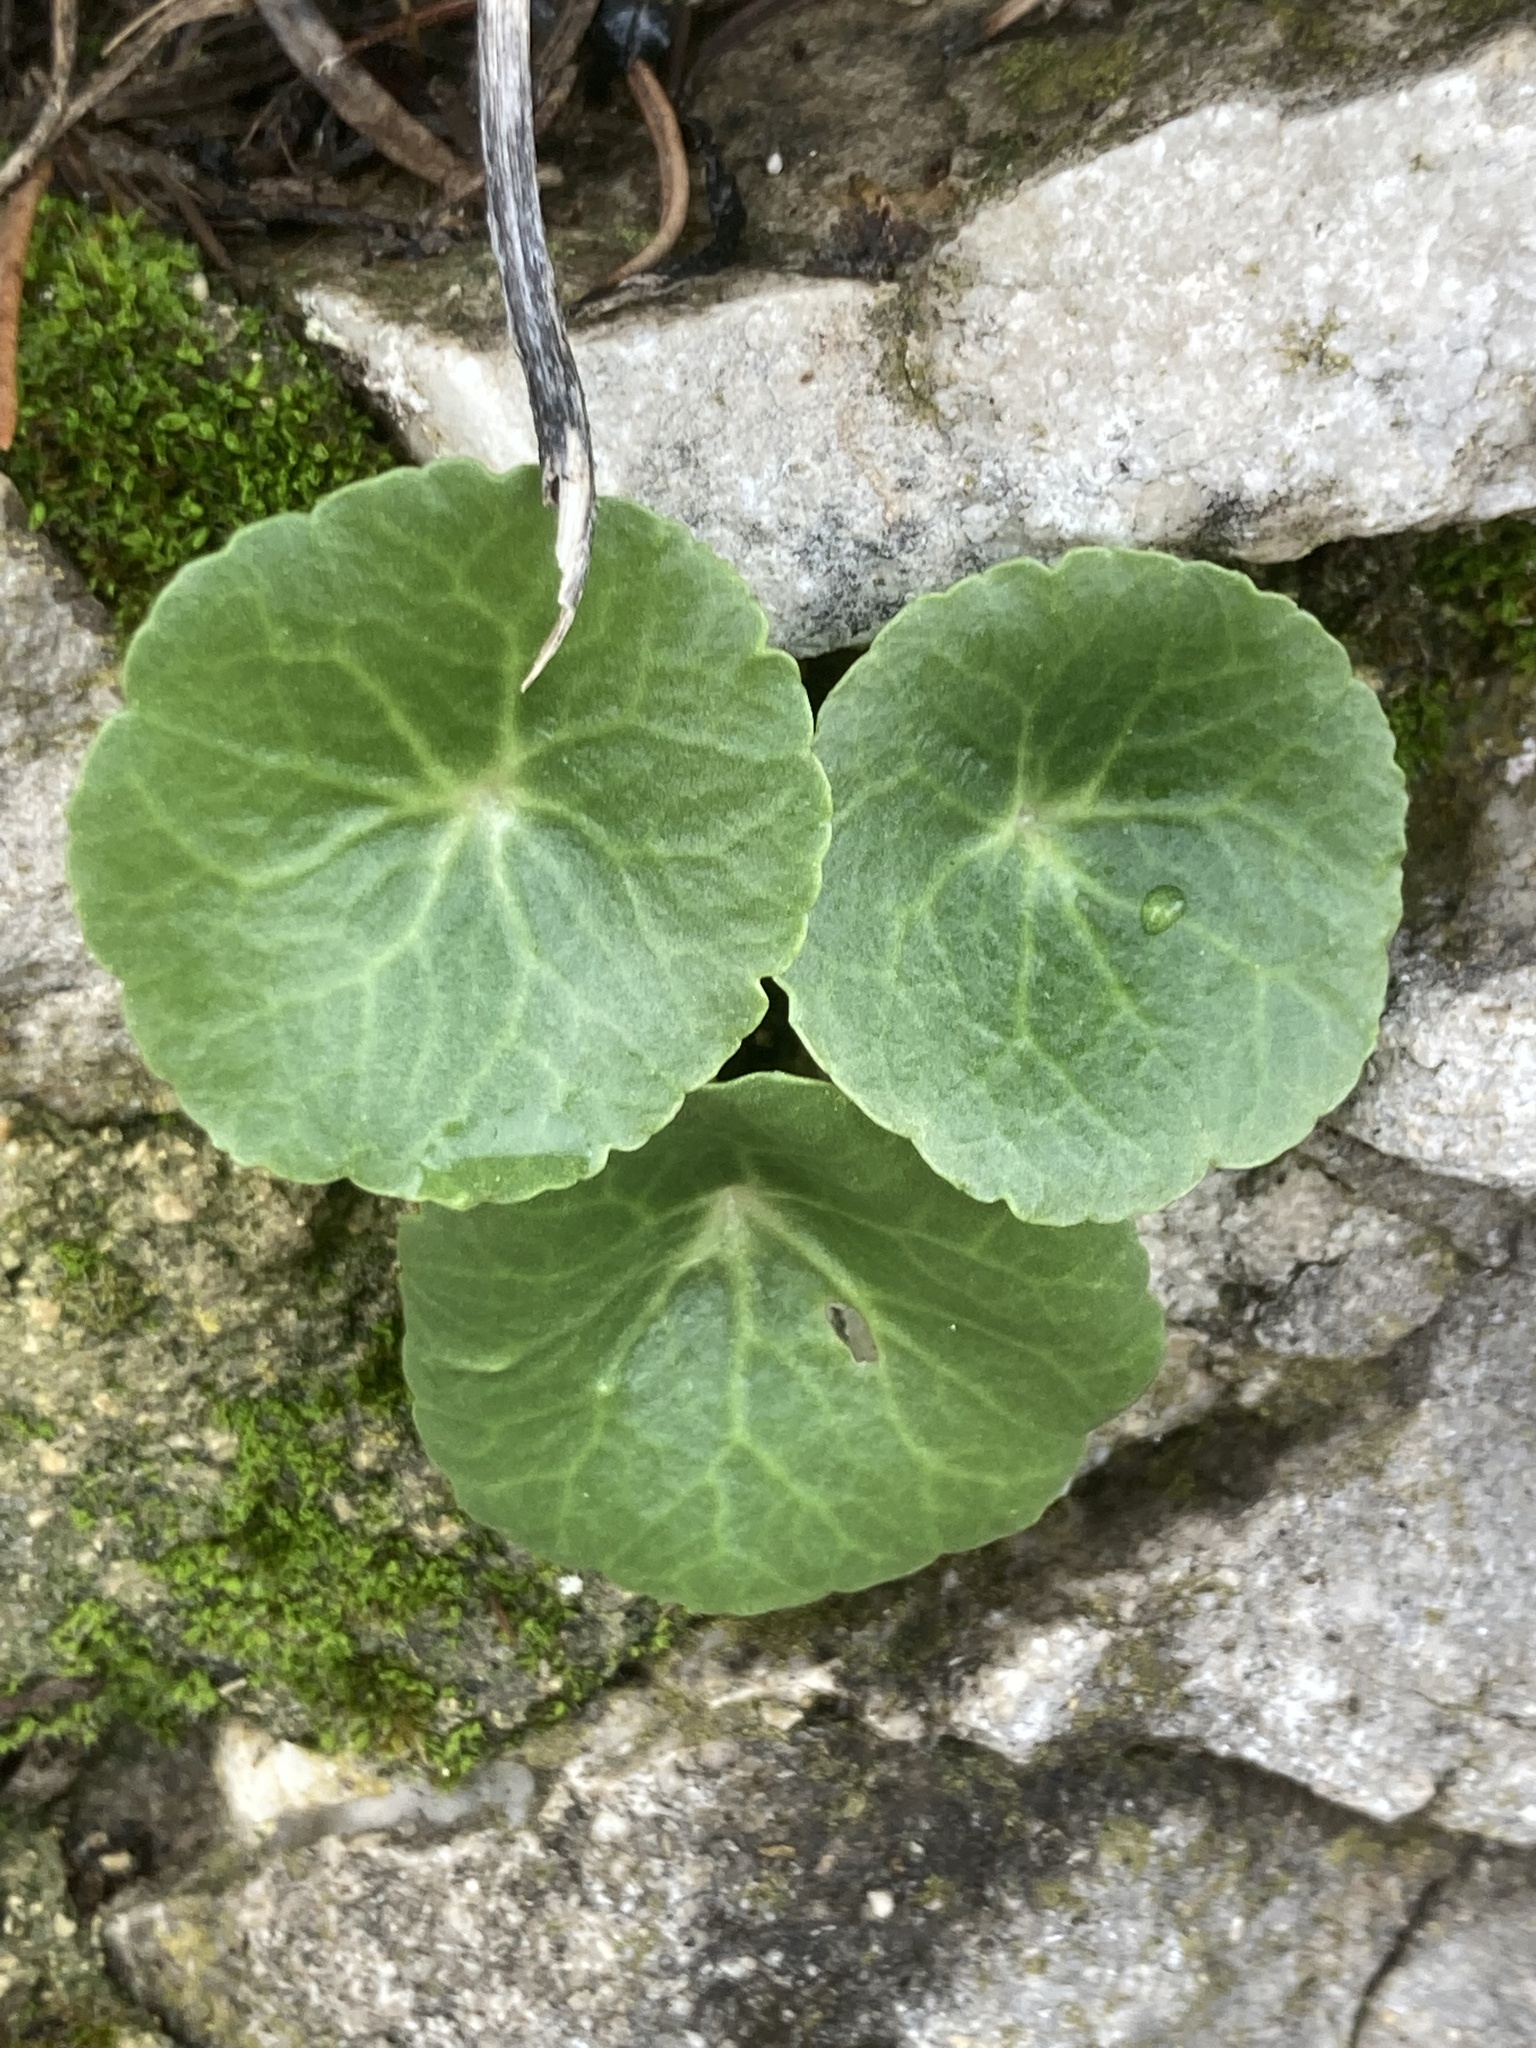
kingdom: Plantae
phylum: Tracheophyta
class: Magnoliopsida
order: Saxifragales
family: Crassulaceae
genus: Umbilicus
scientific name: Umbilicus rupestris
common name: Navelwort
